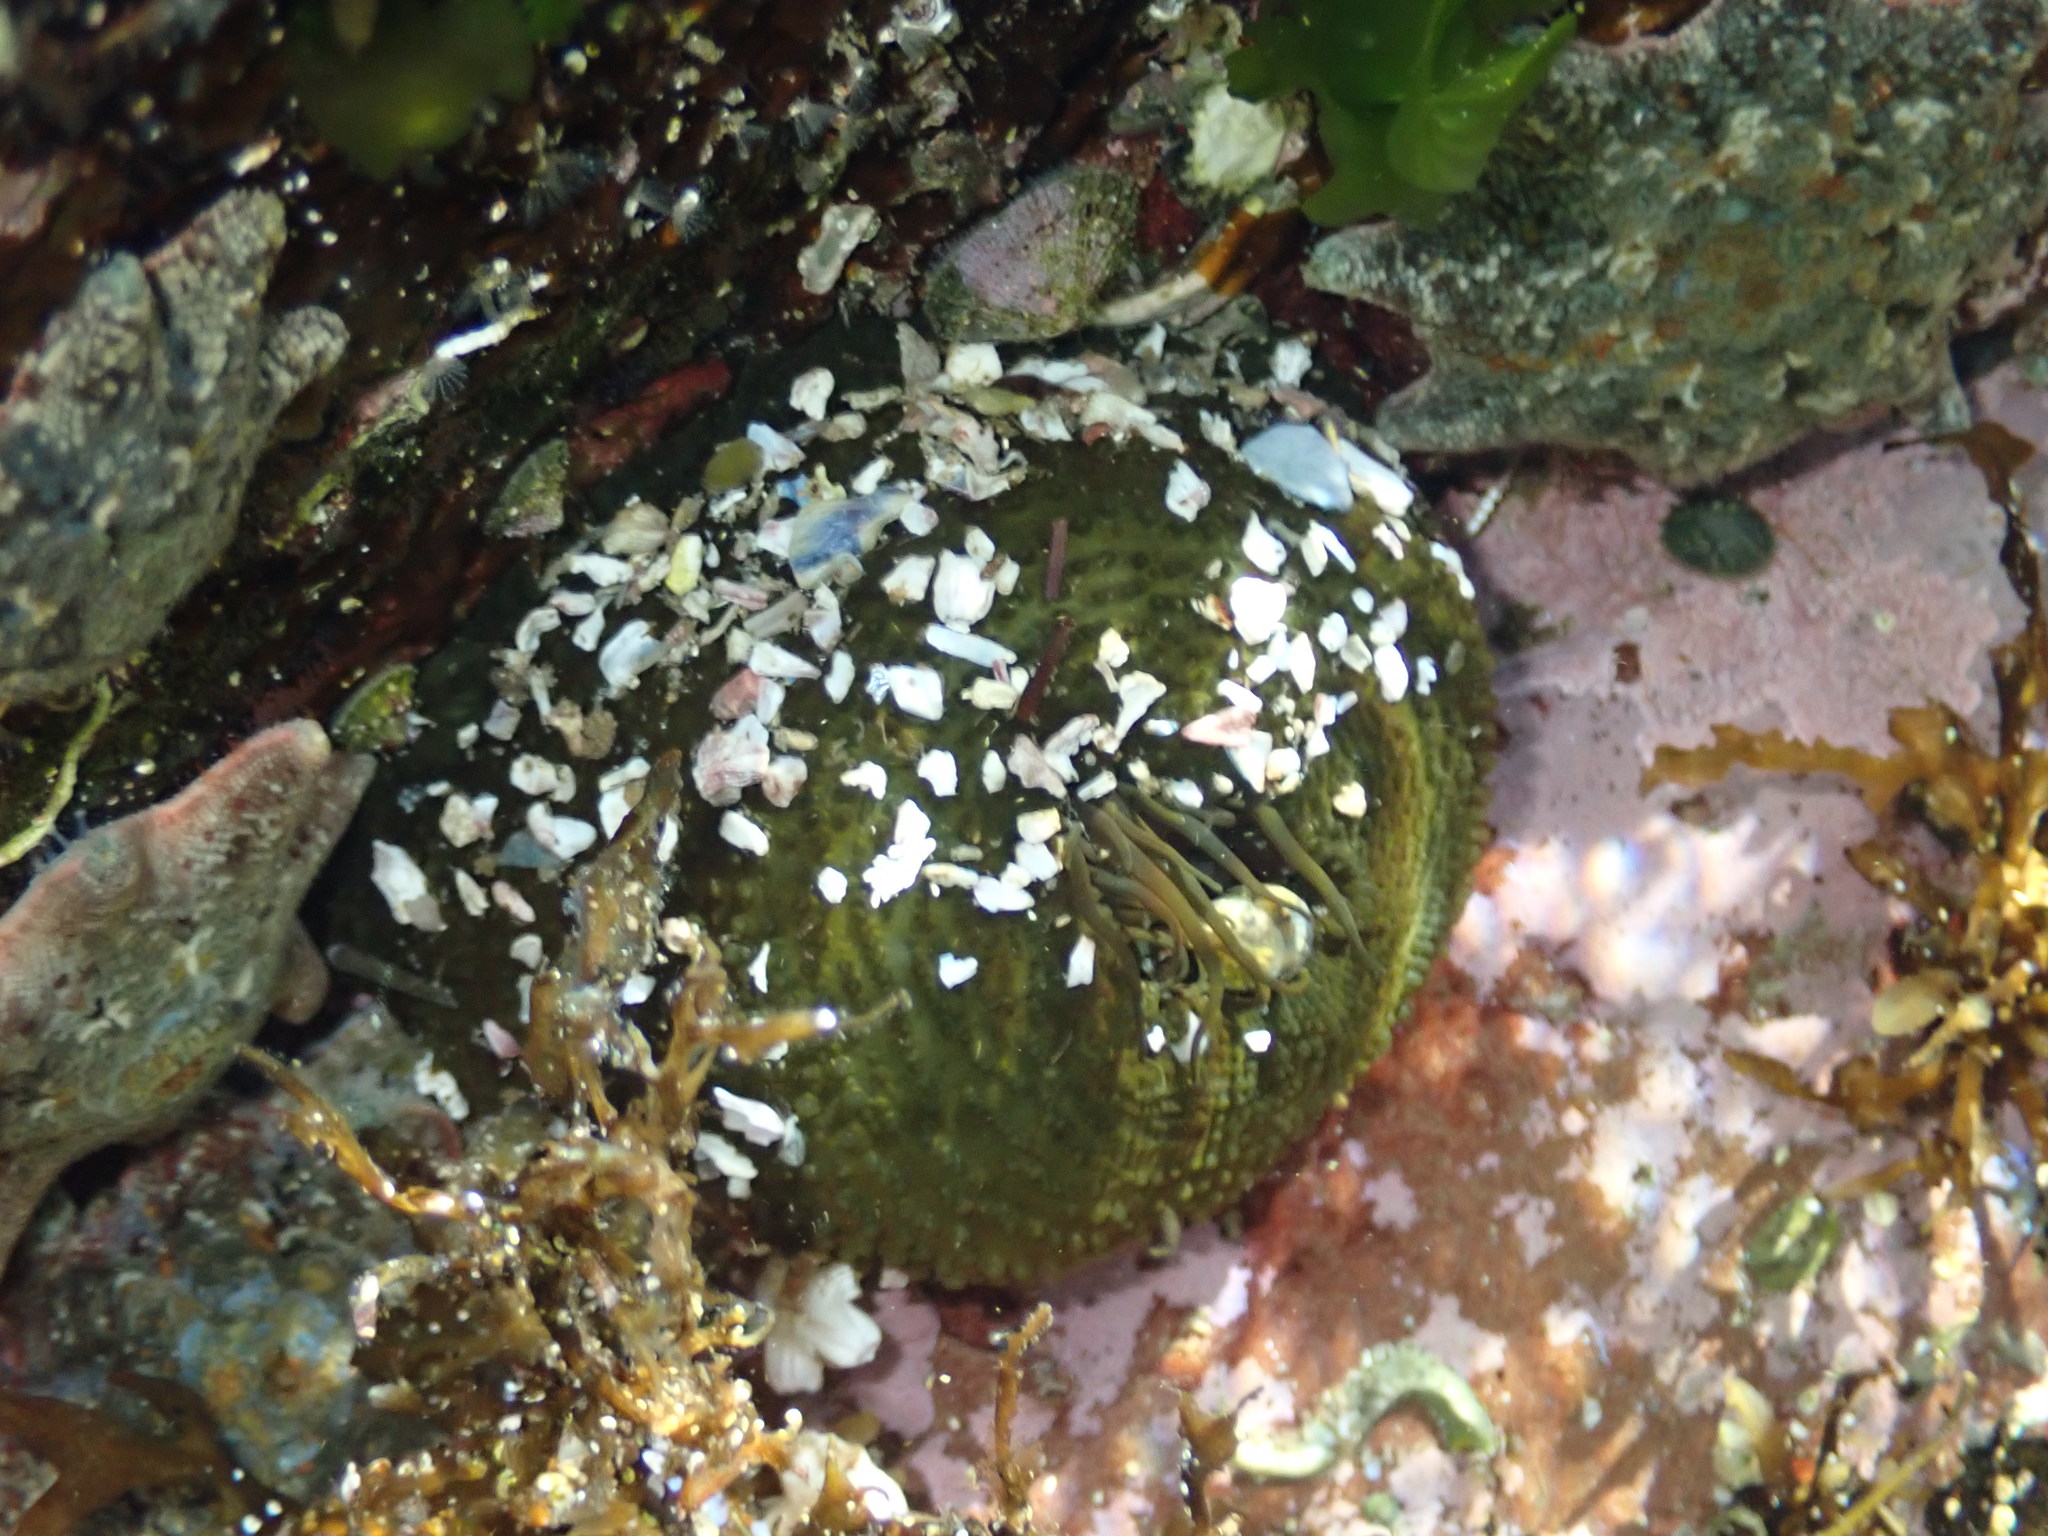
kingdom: Animalia
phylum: Cnidaria
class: Anthozoa
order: Actiniaria
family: Actiniidae
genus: Aulactinia
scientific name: Aulactinia veratra
